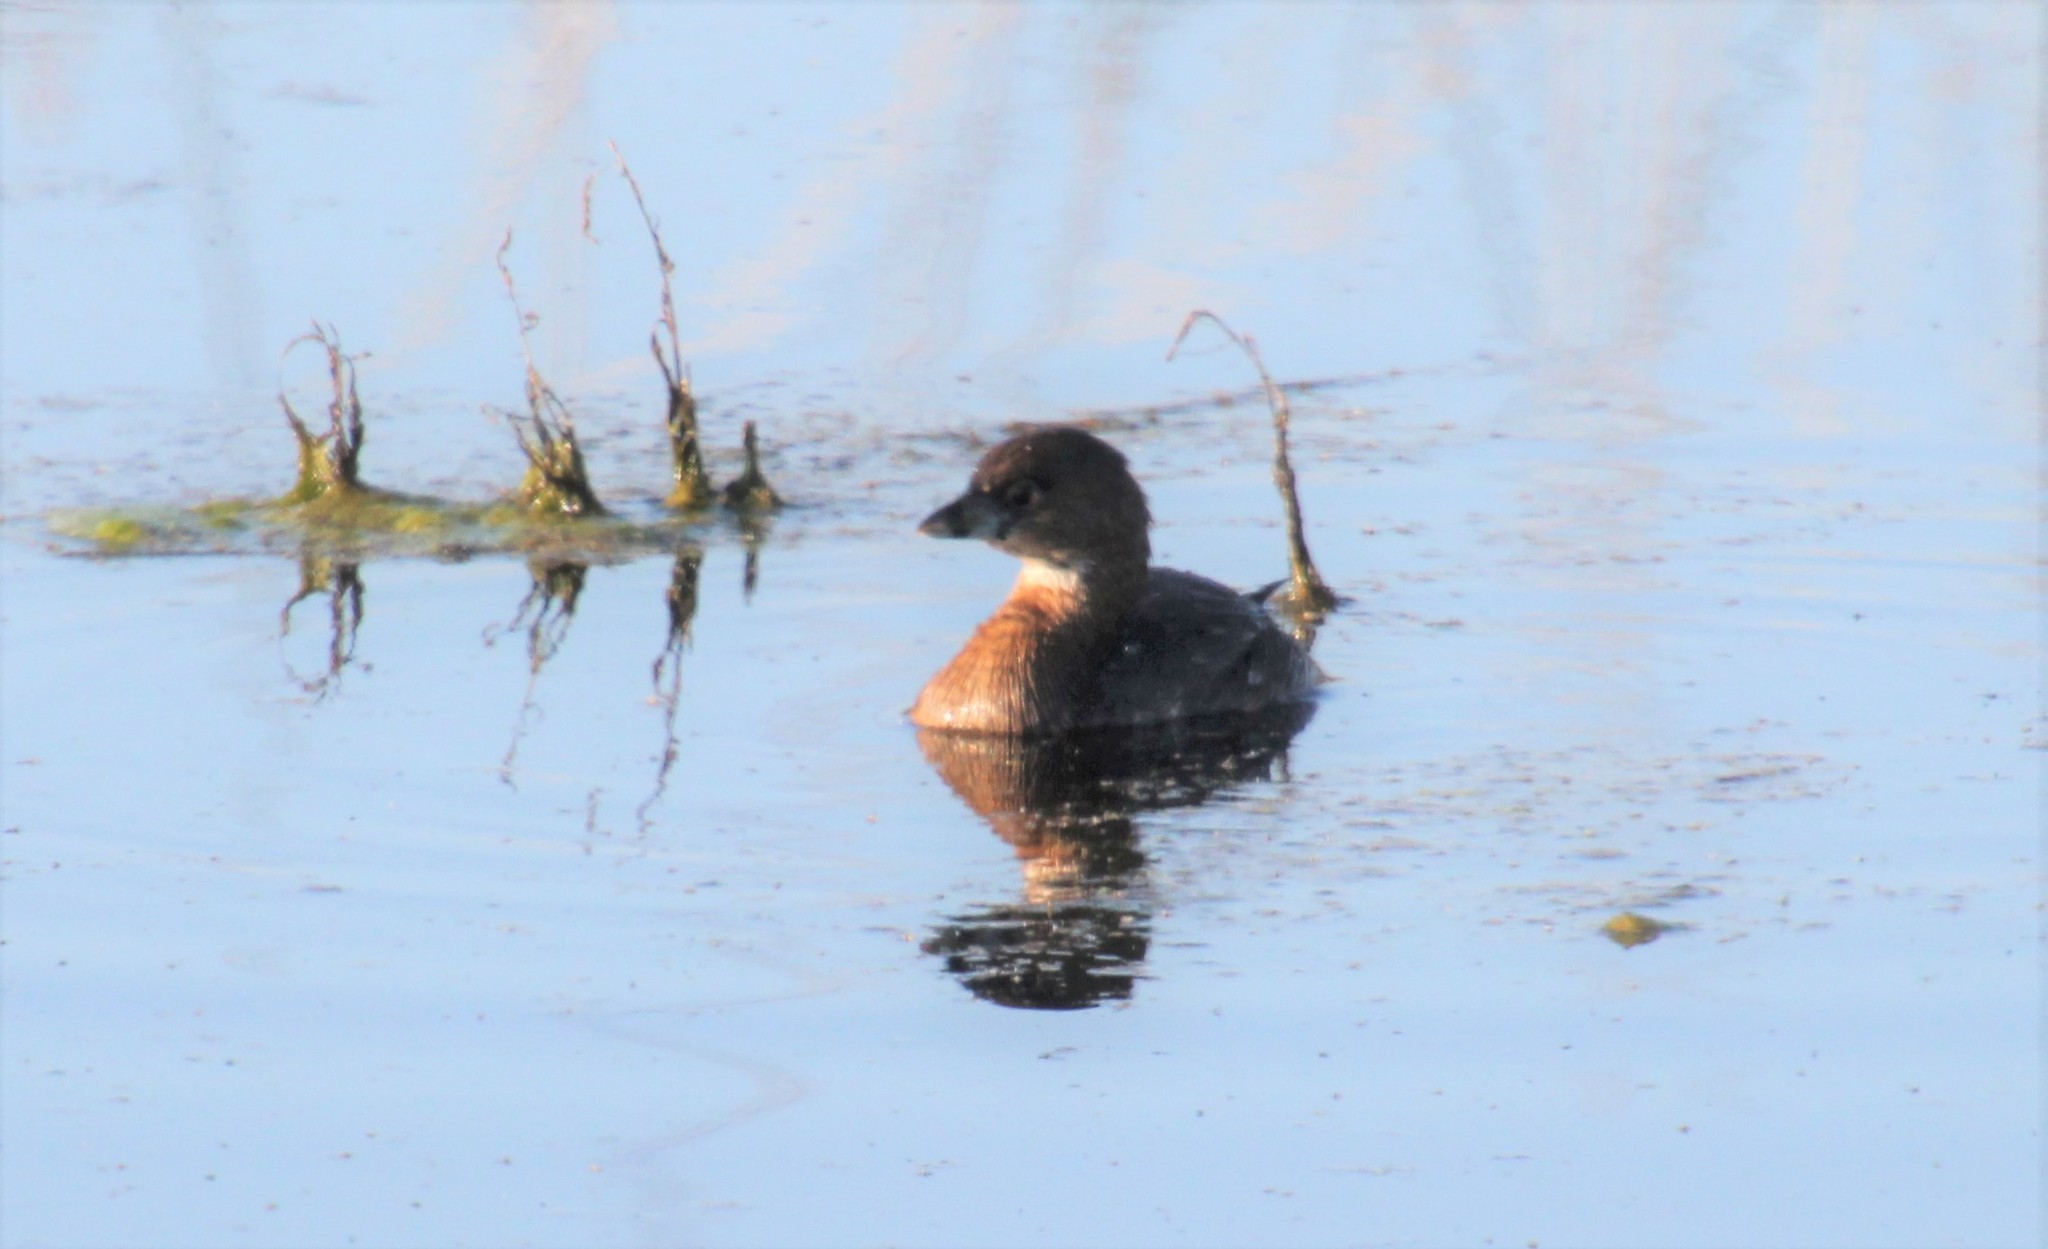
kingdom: Animalia
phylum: Chordata
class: Aves
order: Podicipediformes
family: Podicipedidae
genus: Podilymbus
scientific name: Podilymbus podiceps
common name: Pied-billed grebe
